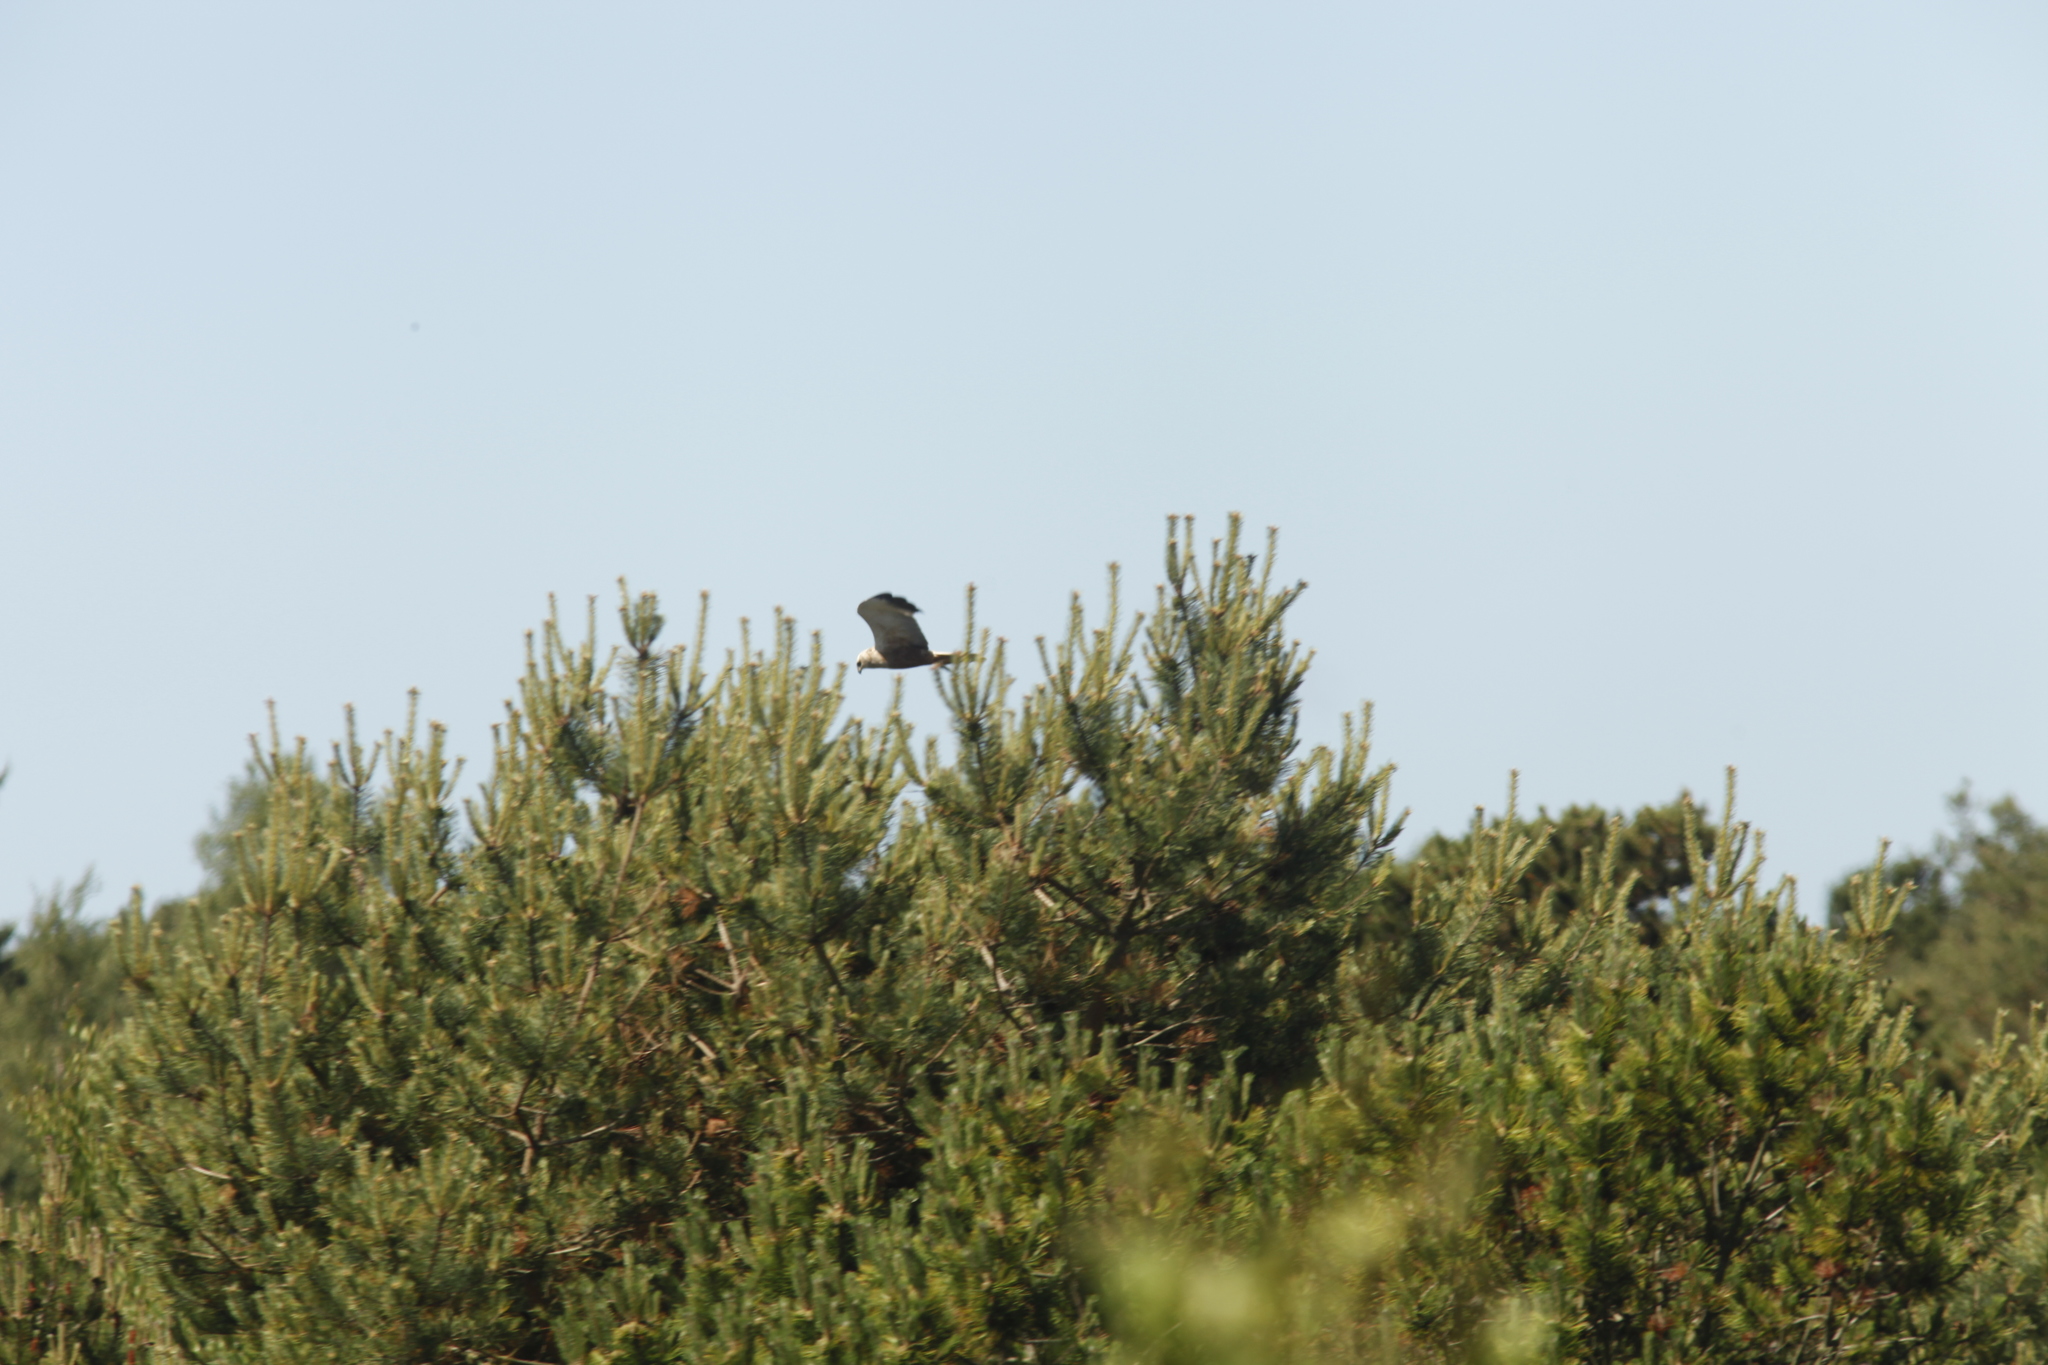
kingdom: Animalia
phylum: Chordata
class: Aves
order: Accipitriformes
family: Accipitridae
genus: Circus
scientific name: Circus aeruginosus
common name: Western marsh harrier
